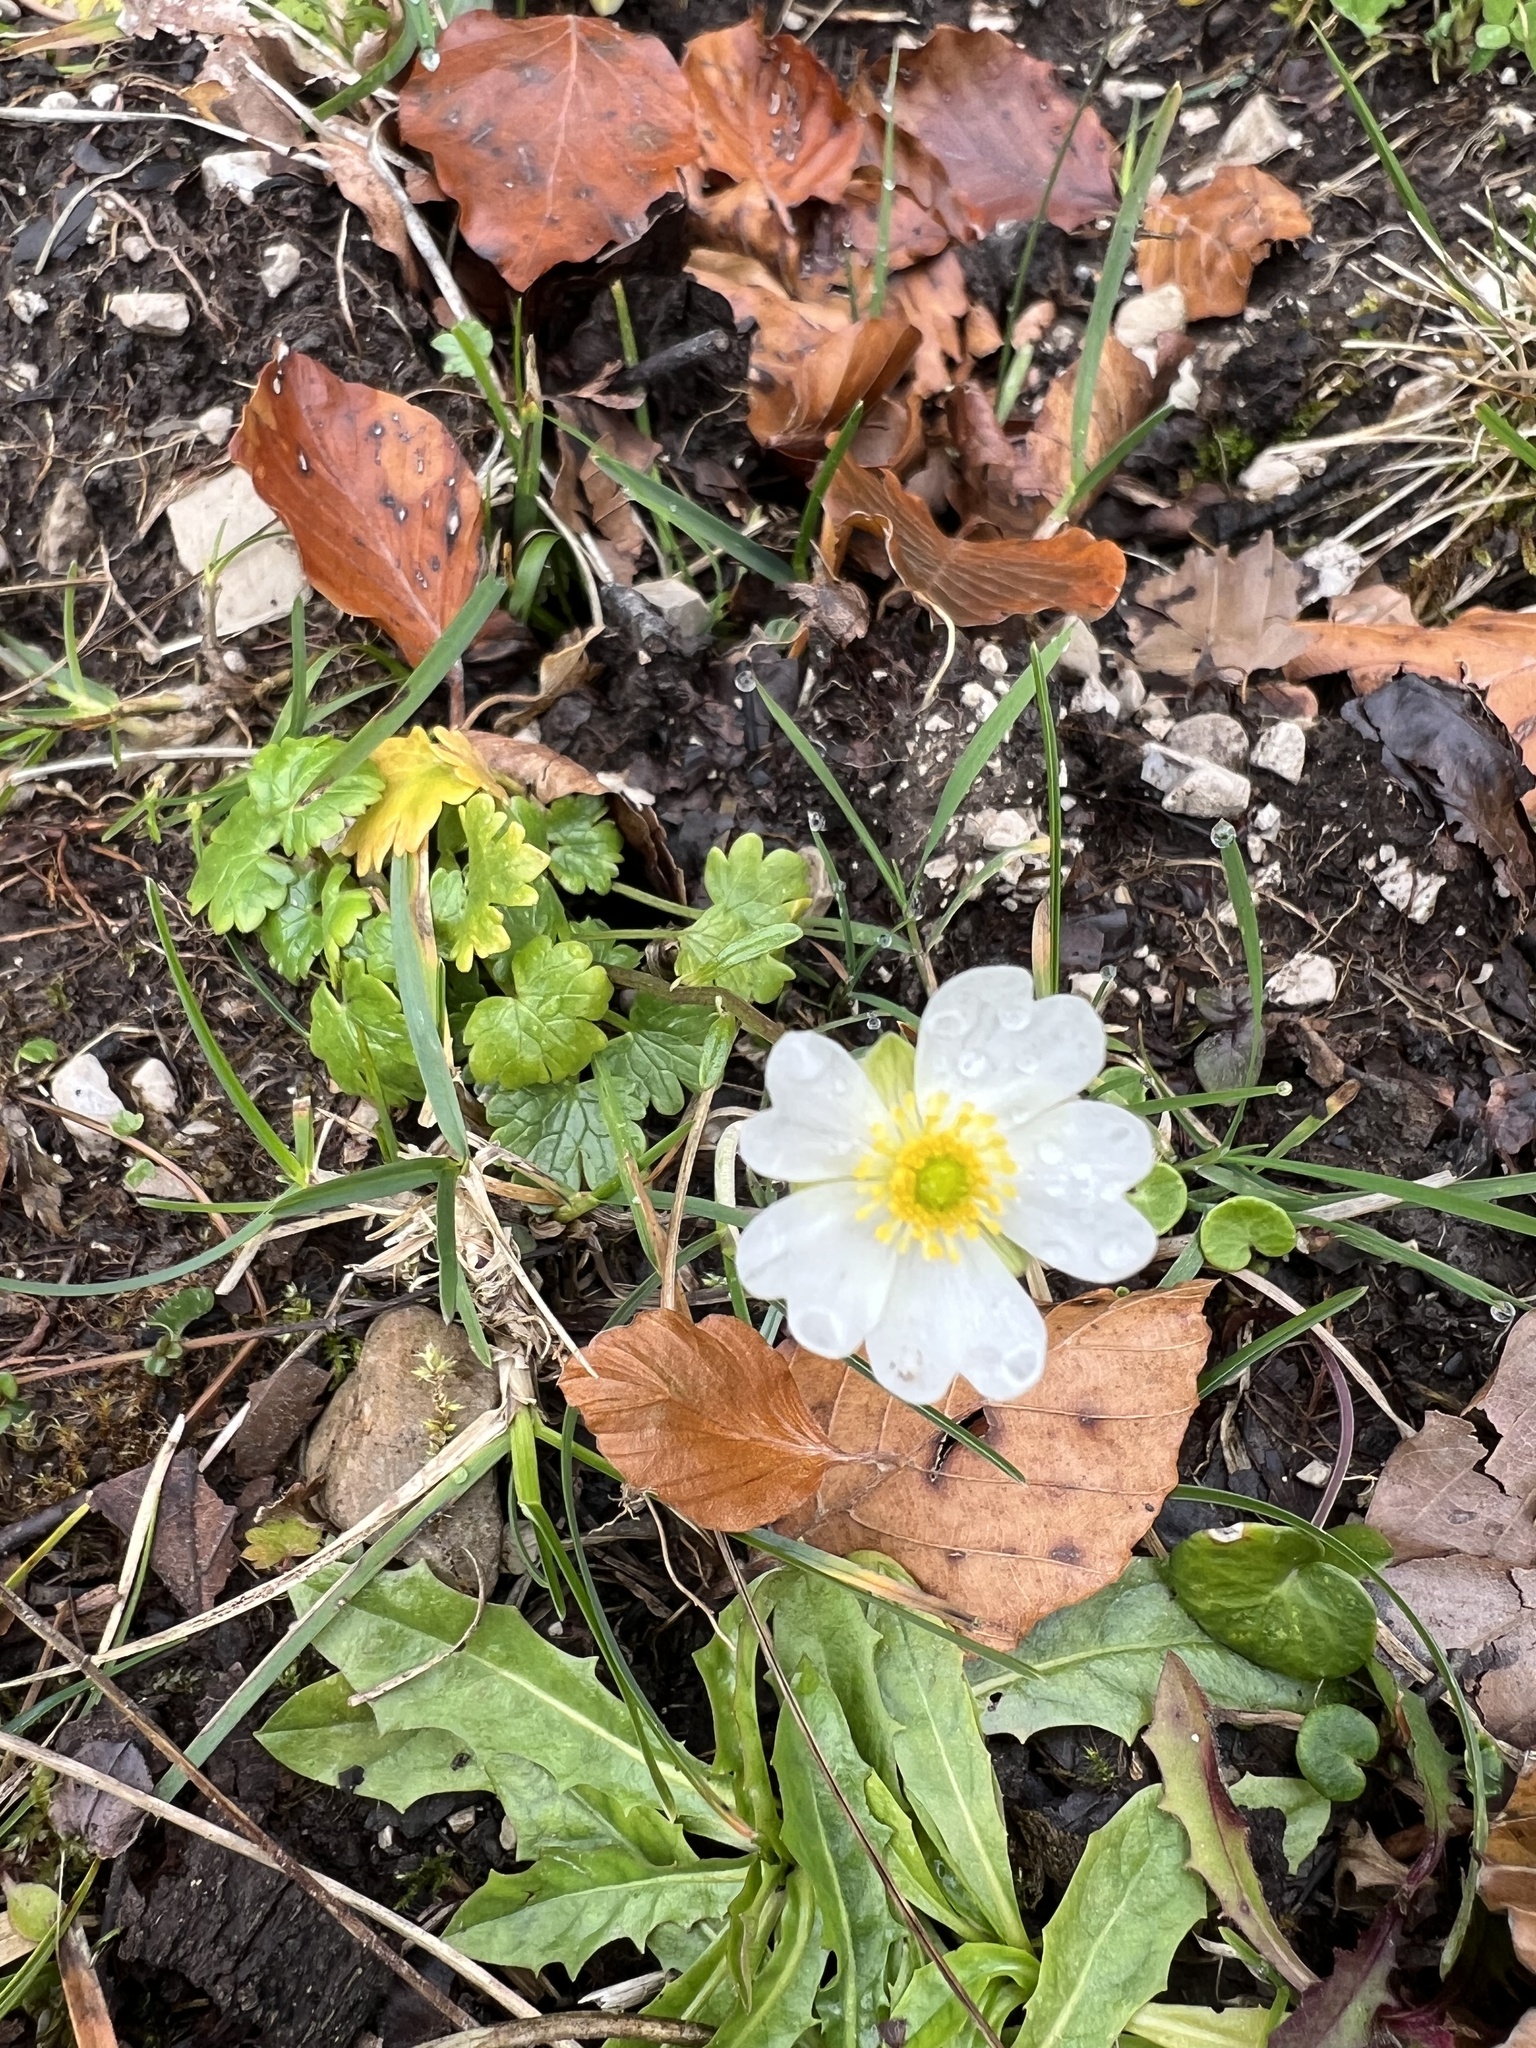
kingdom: Plantae
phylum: Tracheophyta
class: Magnoliopsida
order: Ranunculales
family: Ranunculaceae
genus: Ranunculus
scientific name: Ranunculus alpestris
